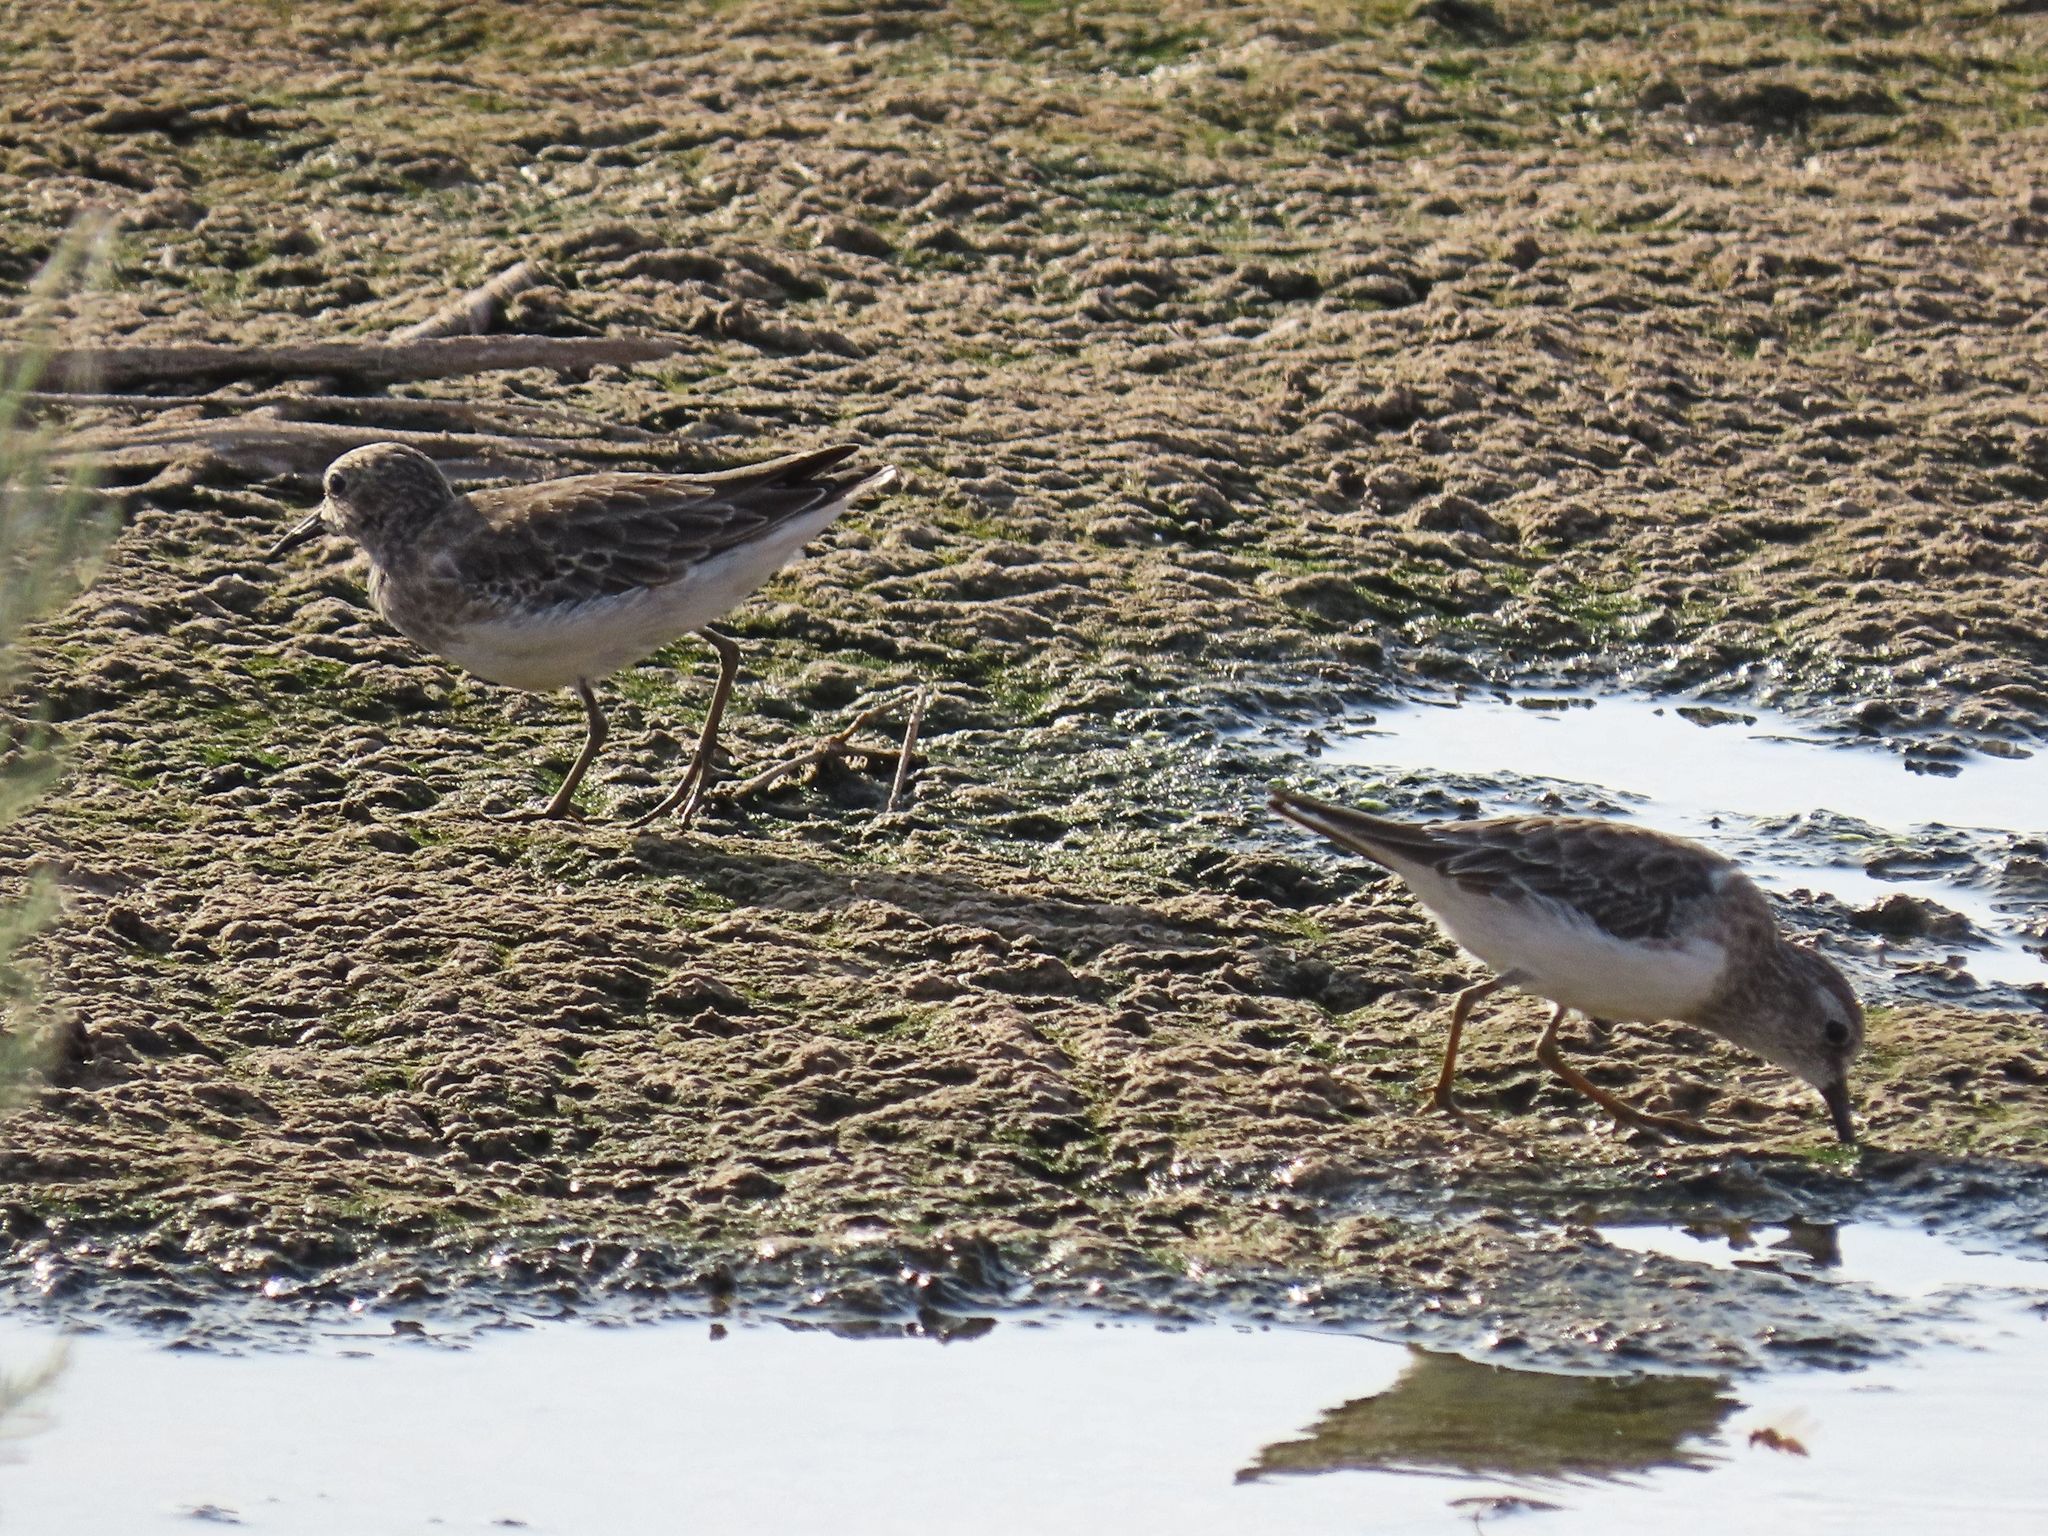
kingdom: Animalia
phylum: Chordata
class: Aves
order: Charadriiformes
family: Scolopacidae
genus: Calidris
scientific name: Calidris minutilla
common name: Least sandpiper
